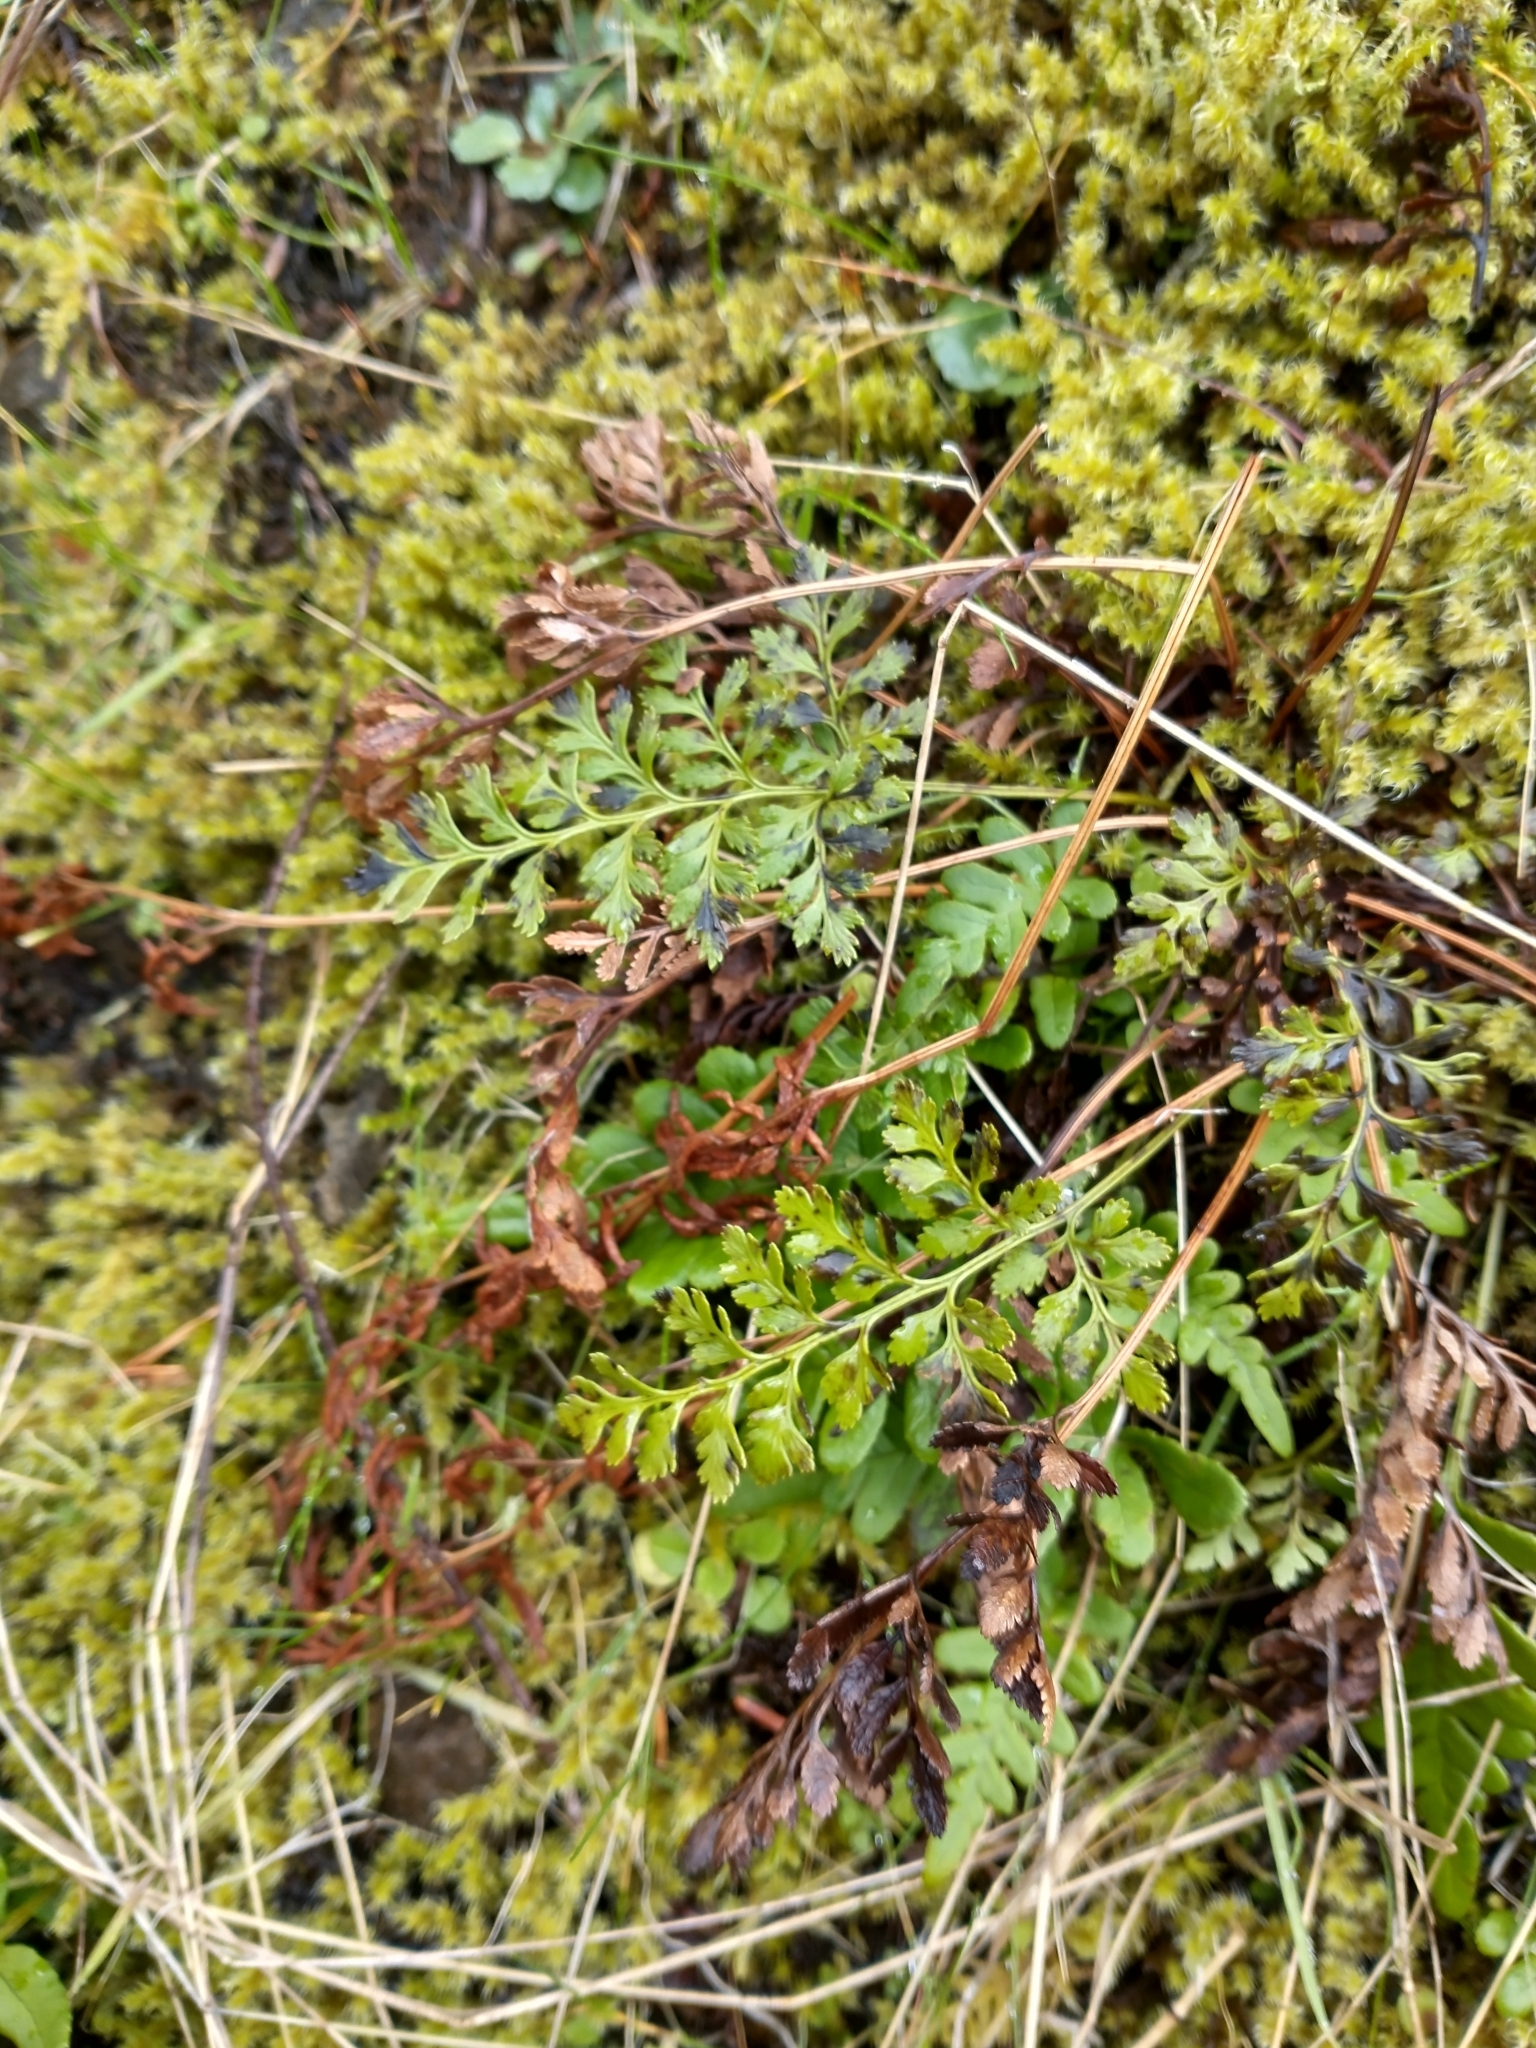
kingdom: Plantae
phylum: Tracheophyta
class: Polypodiopsida
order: Polypodiales
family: Pteridaceae
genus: Cryptogramma
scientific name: Cryptogramma acrostichoides
